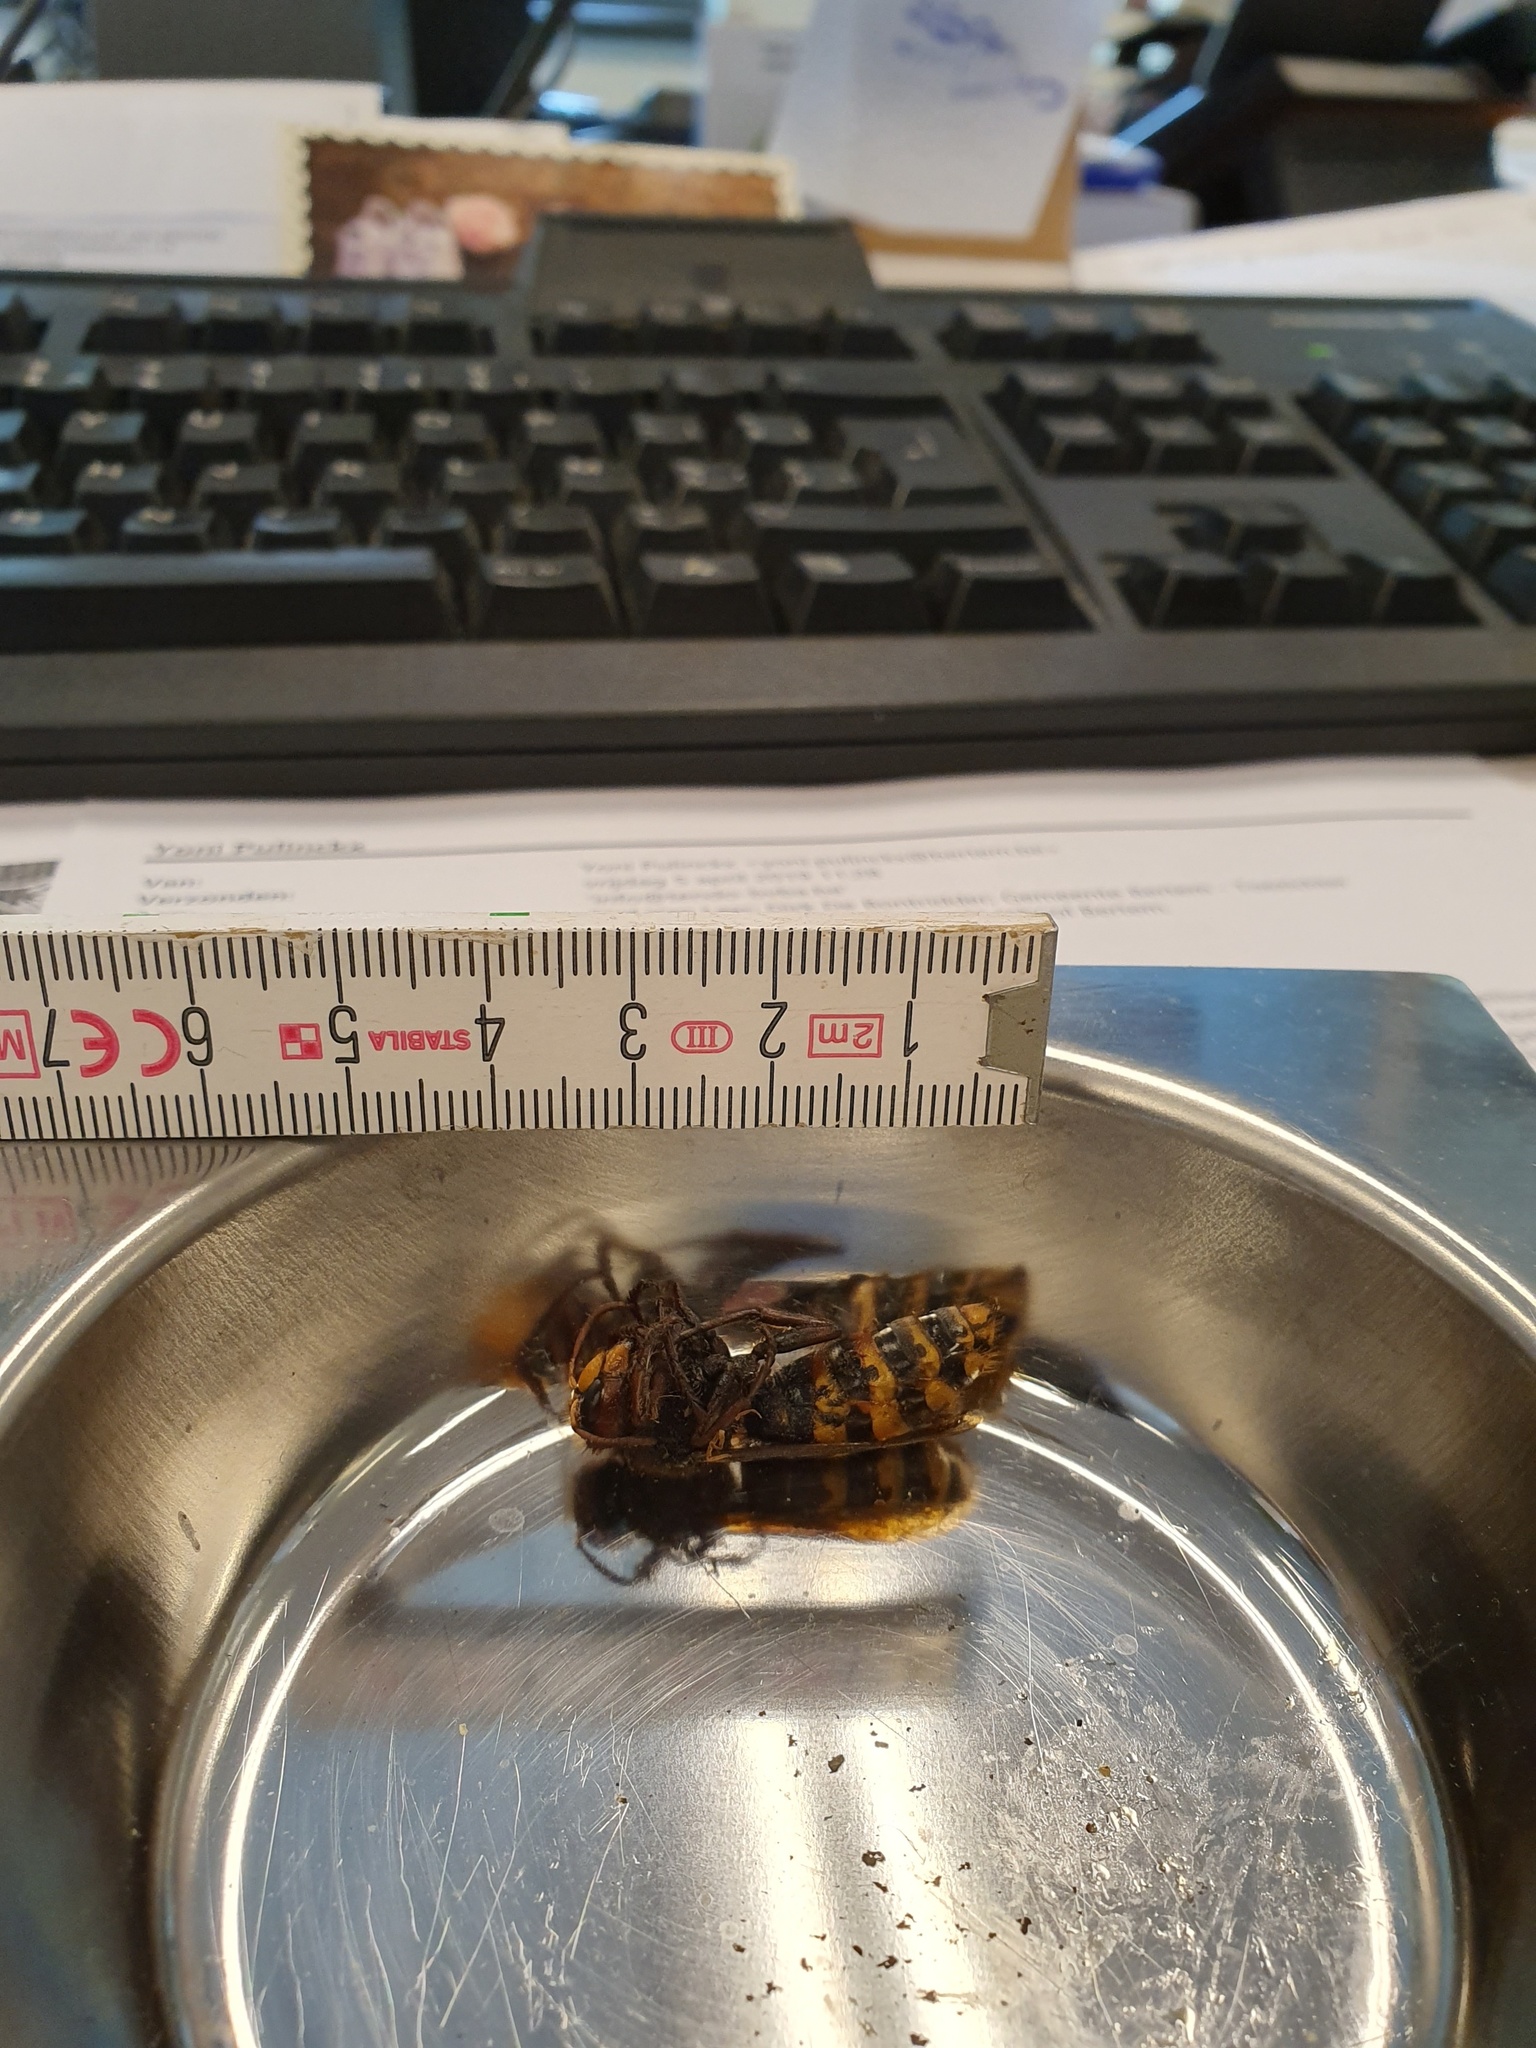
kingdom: Animalia
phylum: Arthropoda
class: Insecta
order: Hymenoptera
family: Vespidae
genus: Vespa
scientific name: Vespa crabro
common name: Hornet
